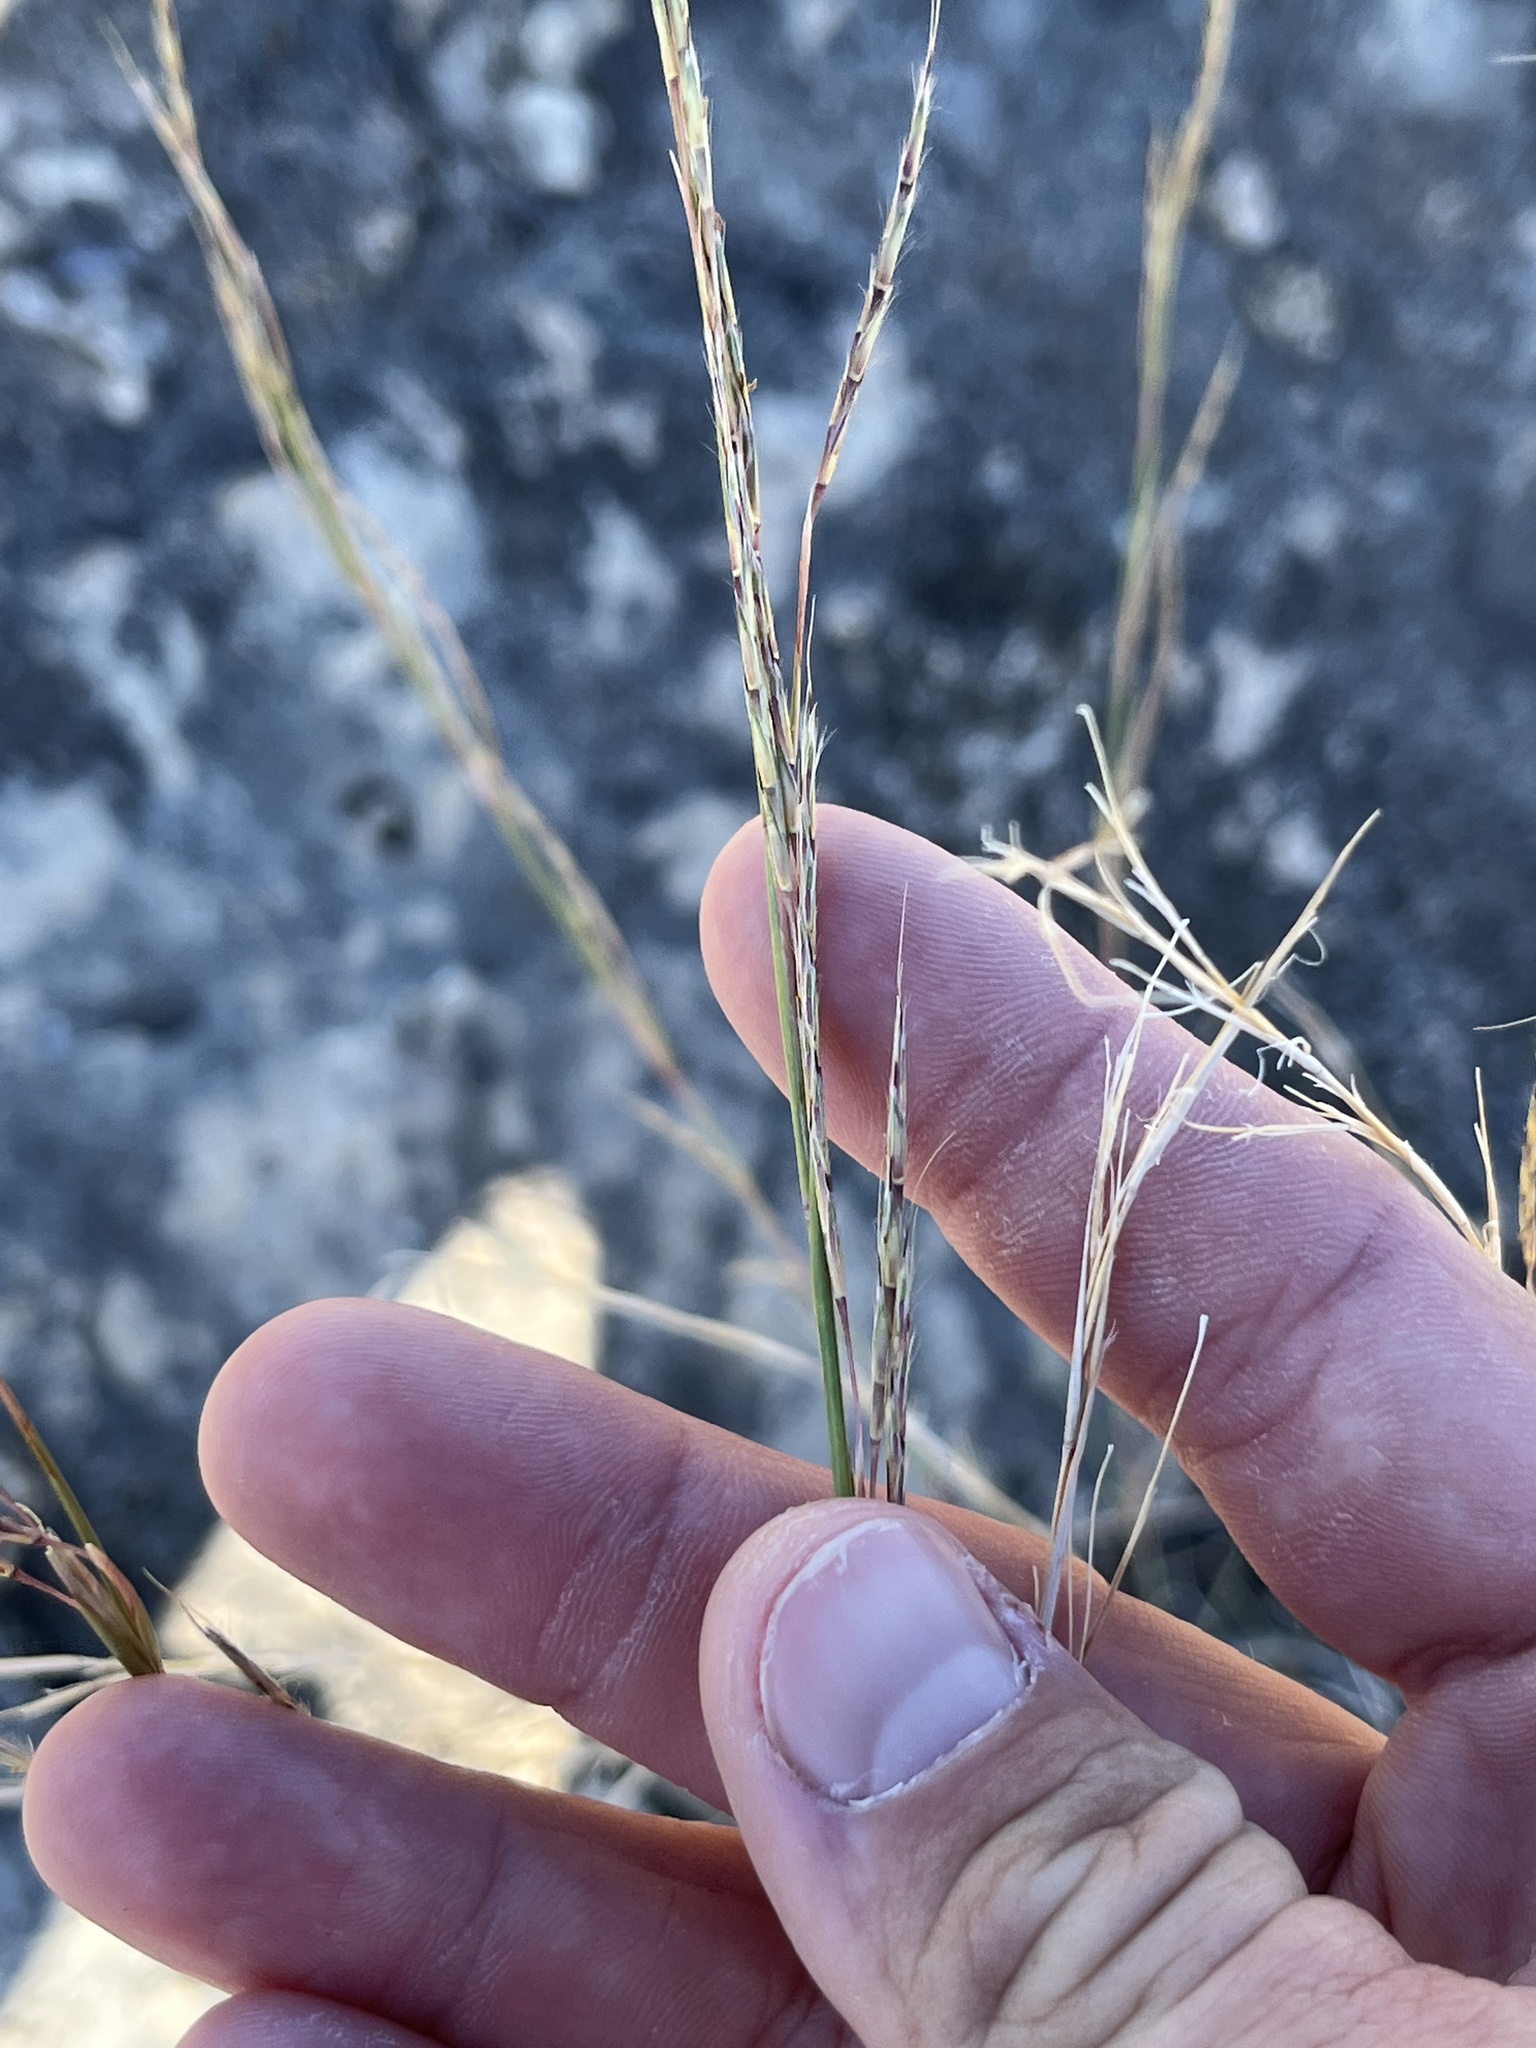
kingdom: Plantae
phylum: Tracheophyta
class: Liliopsida
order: Poales
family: Poaceae
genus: Schizachyrium
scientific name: Schizachyrium scoparium
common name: Little bluestem
